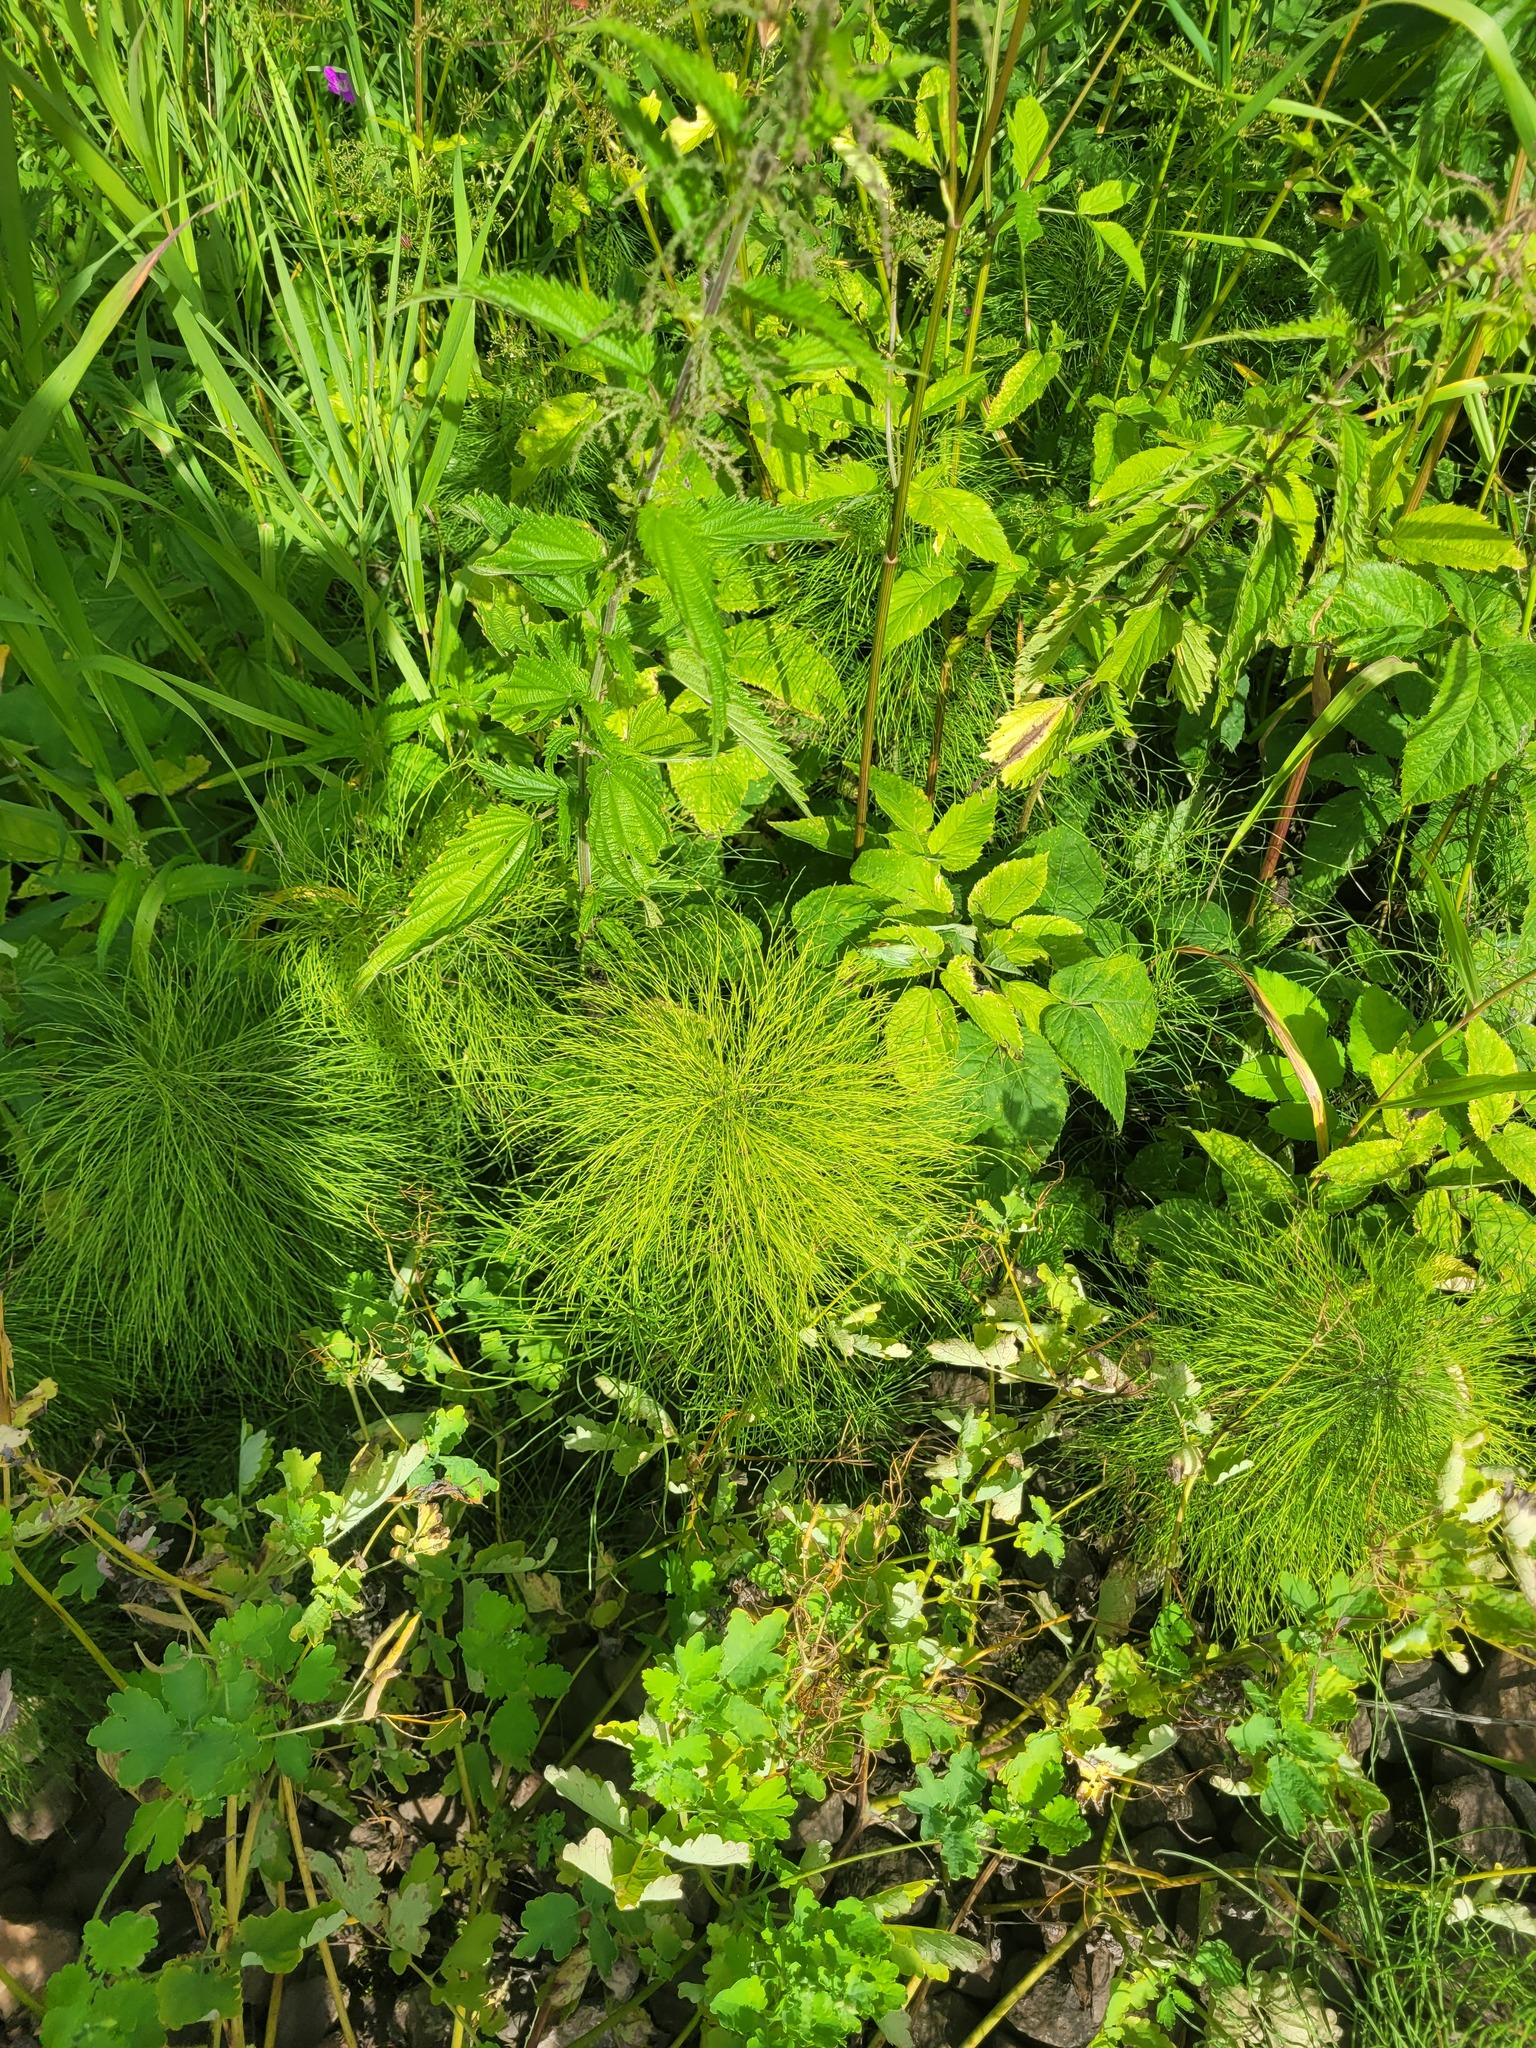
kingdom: Plantae
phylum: Tracheophyta
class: Polypodiopsida
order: Equisetales
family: Equisetaceae
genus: Equisetum
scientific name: Equisetum sylvaticum
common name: Wood horsetail
